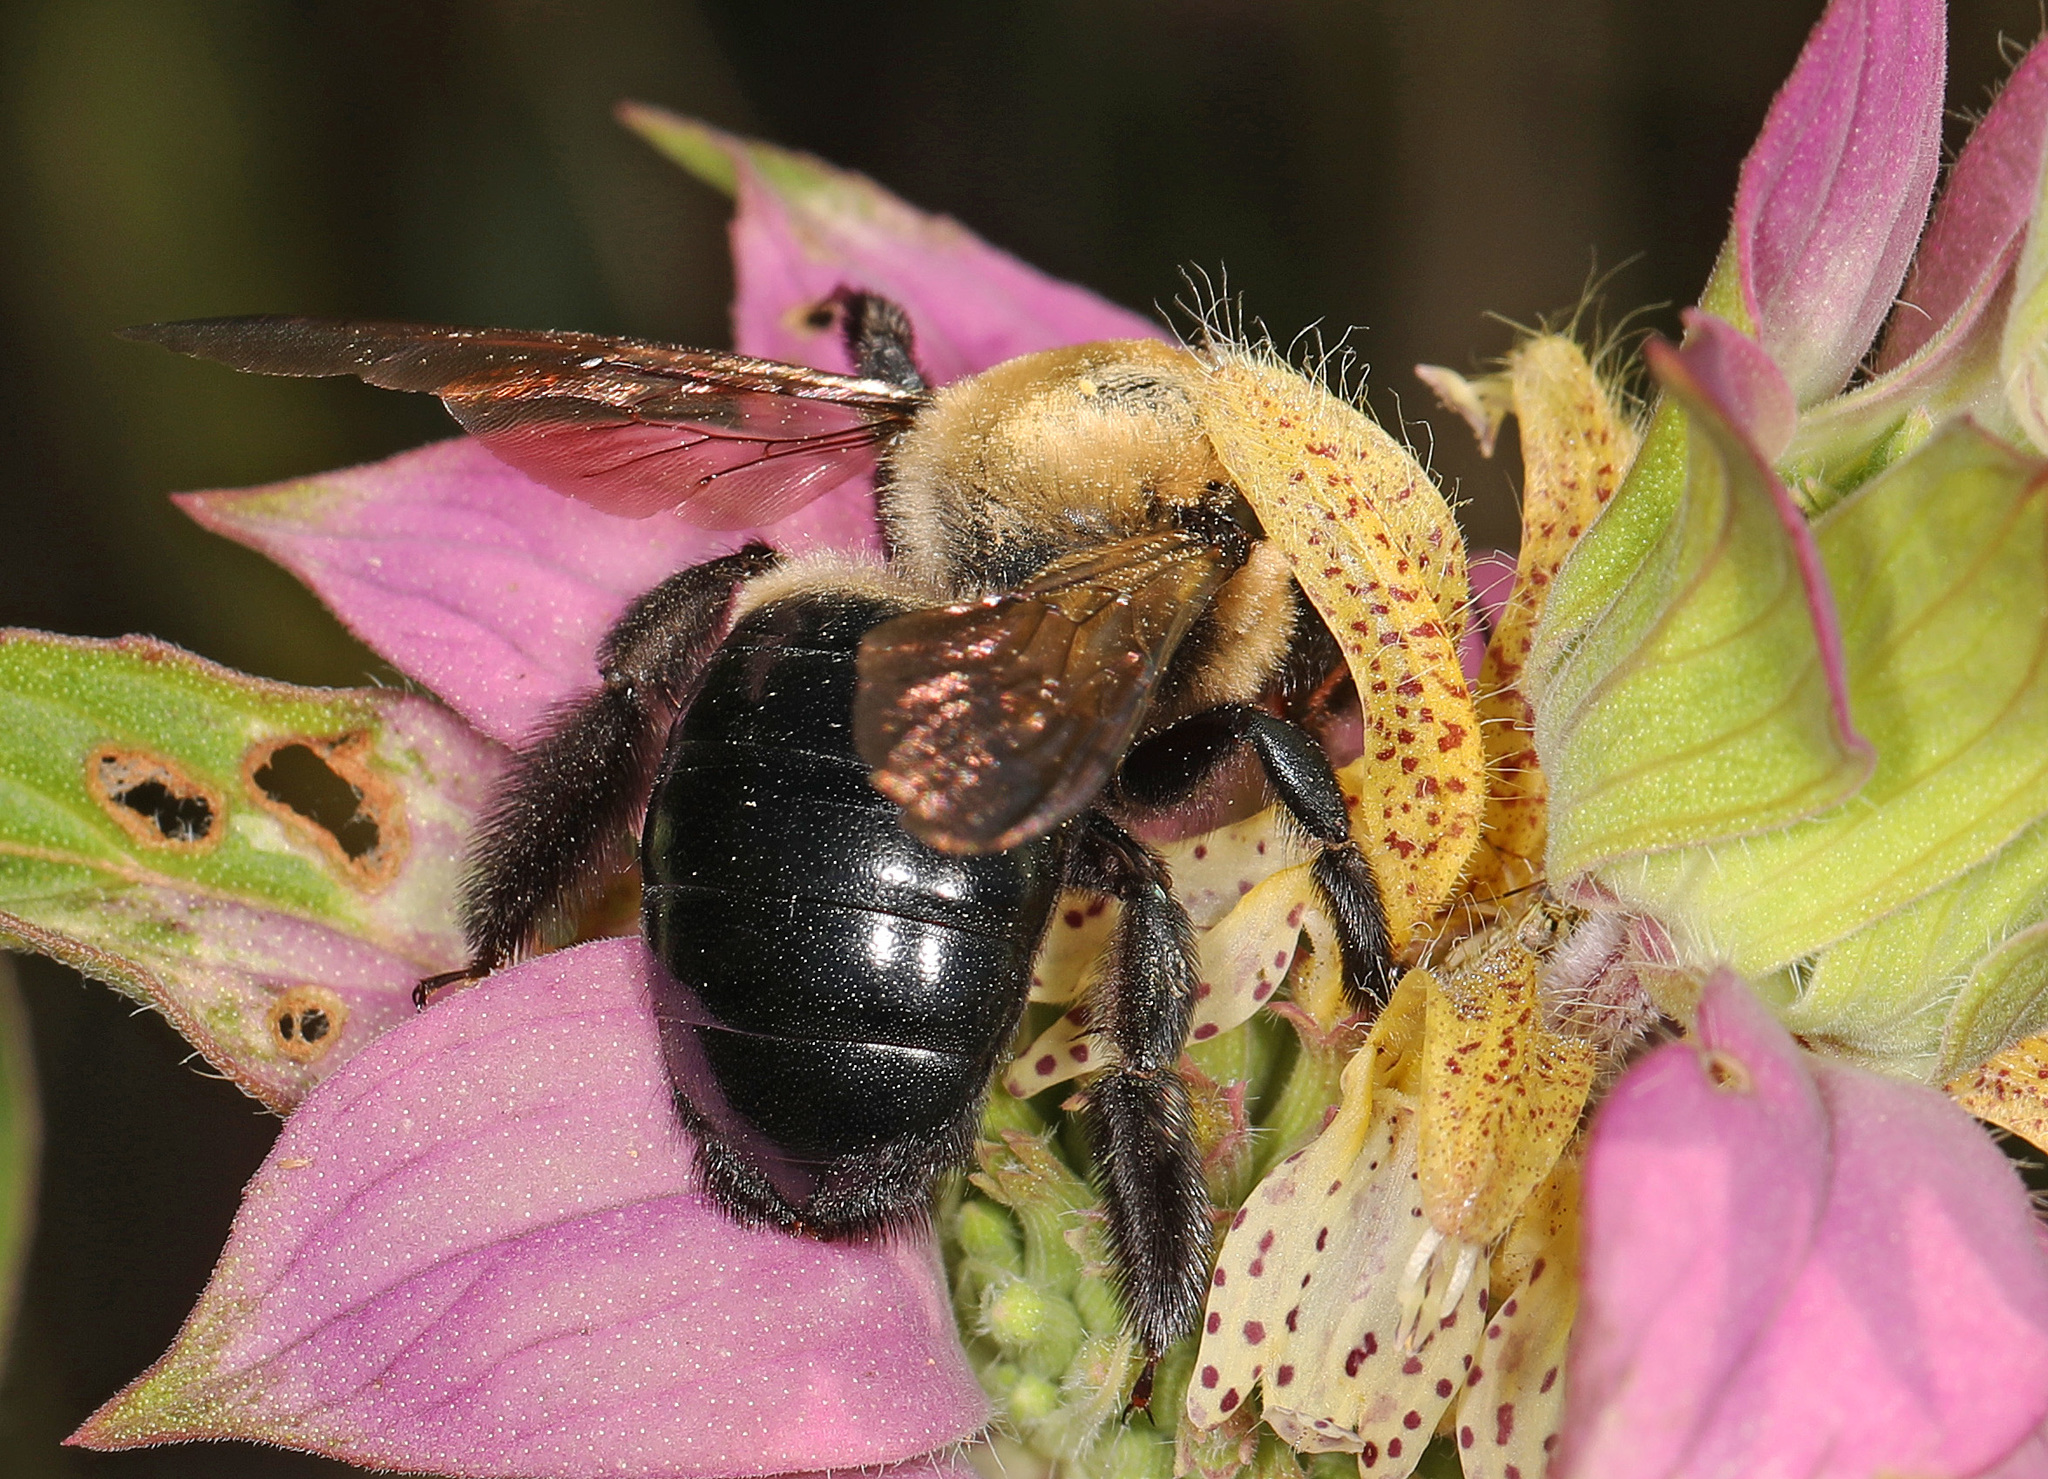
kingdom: Animalia
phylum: Arthropoda
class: Insecta
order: Hymenoptera
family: Apidae
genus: Xylocopa
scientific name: Xylocopa virginica
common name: Carpenter bee
